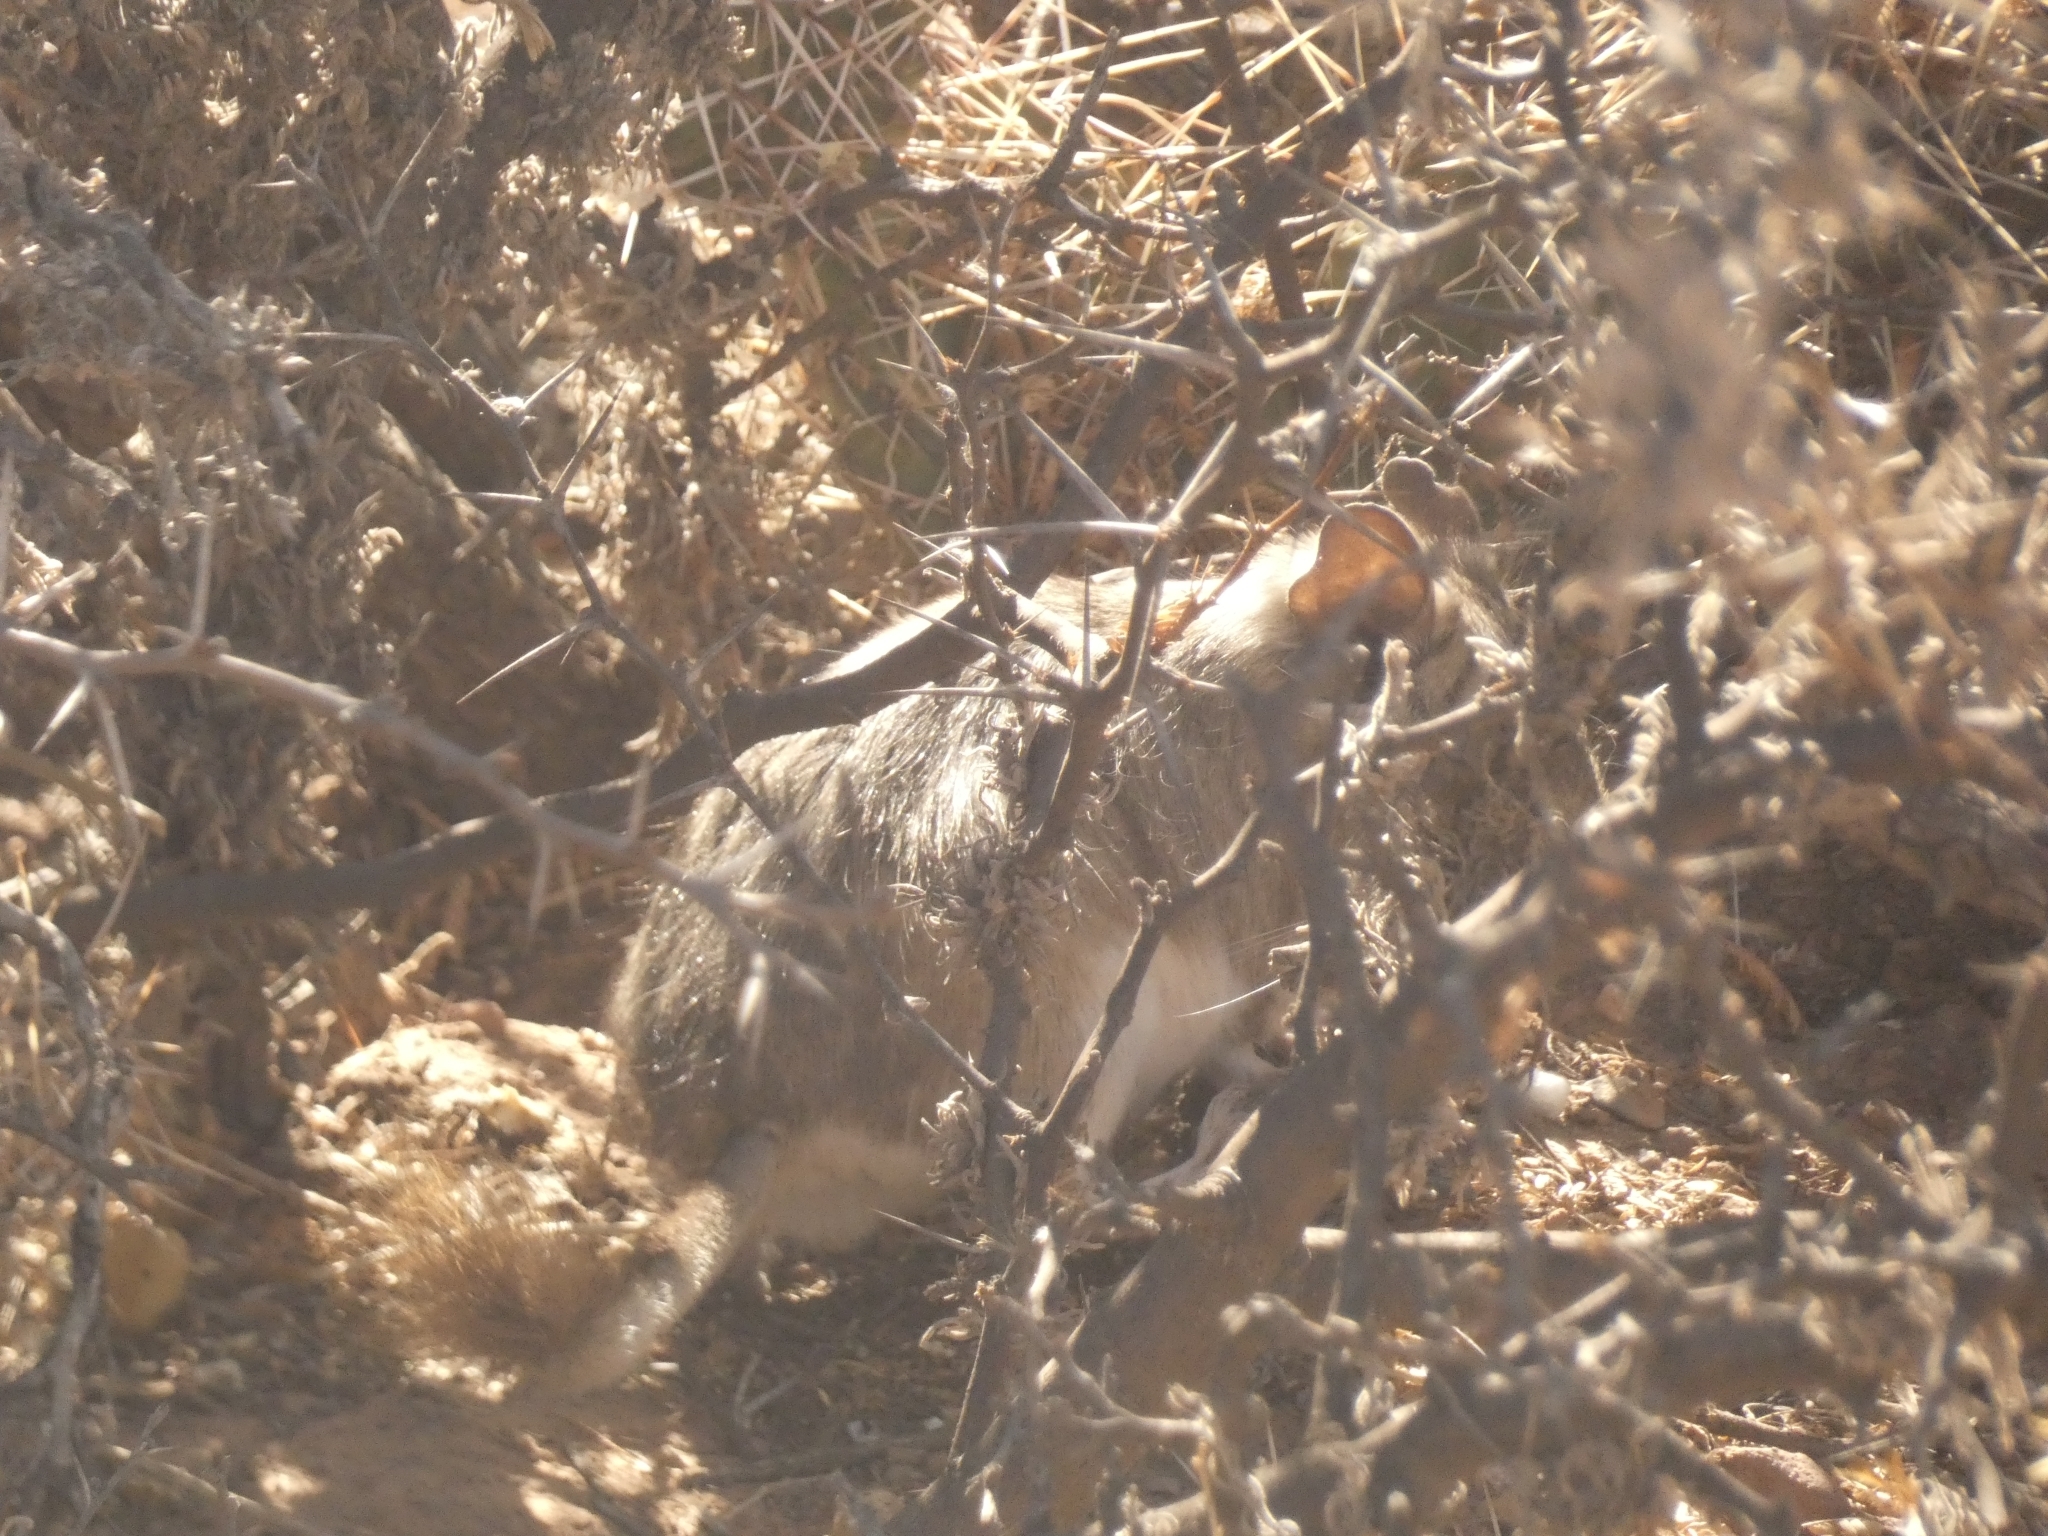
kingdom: Animalia
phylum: Chordata
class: Mammalia
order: Rodentia
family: Octodontidae
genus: Octodontomys
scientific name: Octodontomys gliroides
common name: Mountain degu
